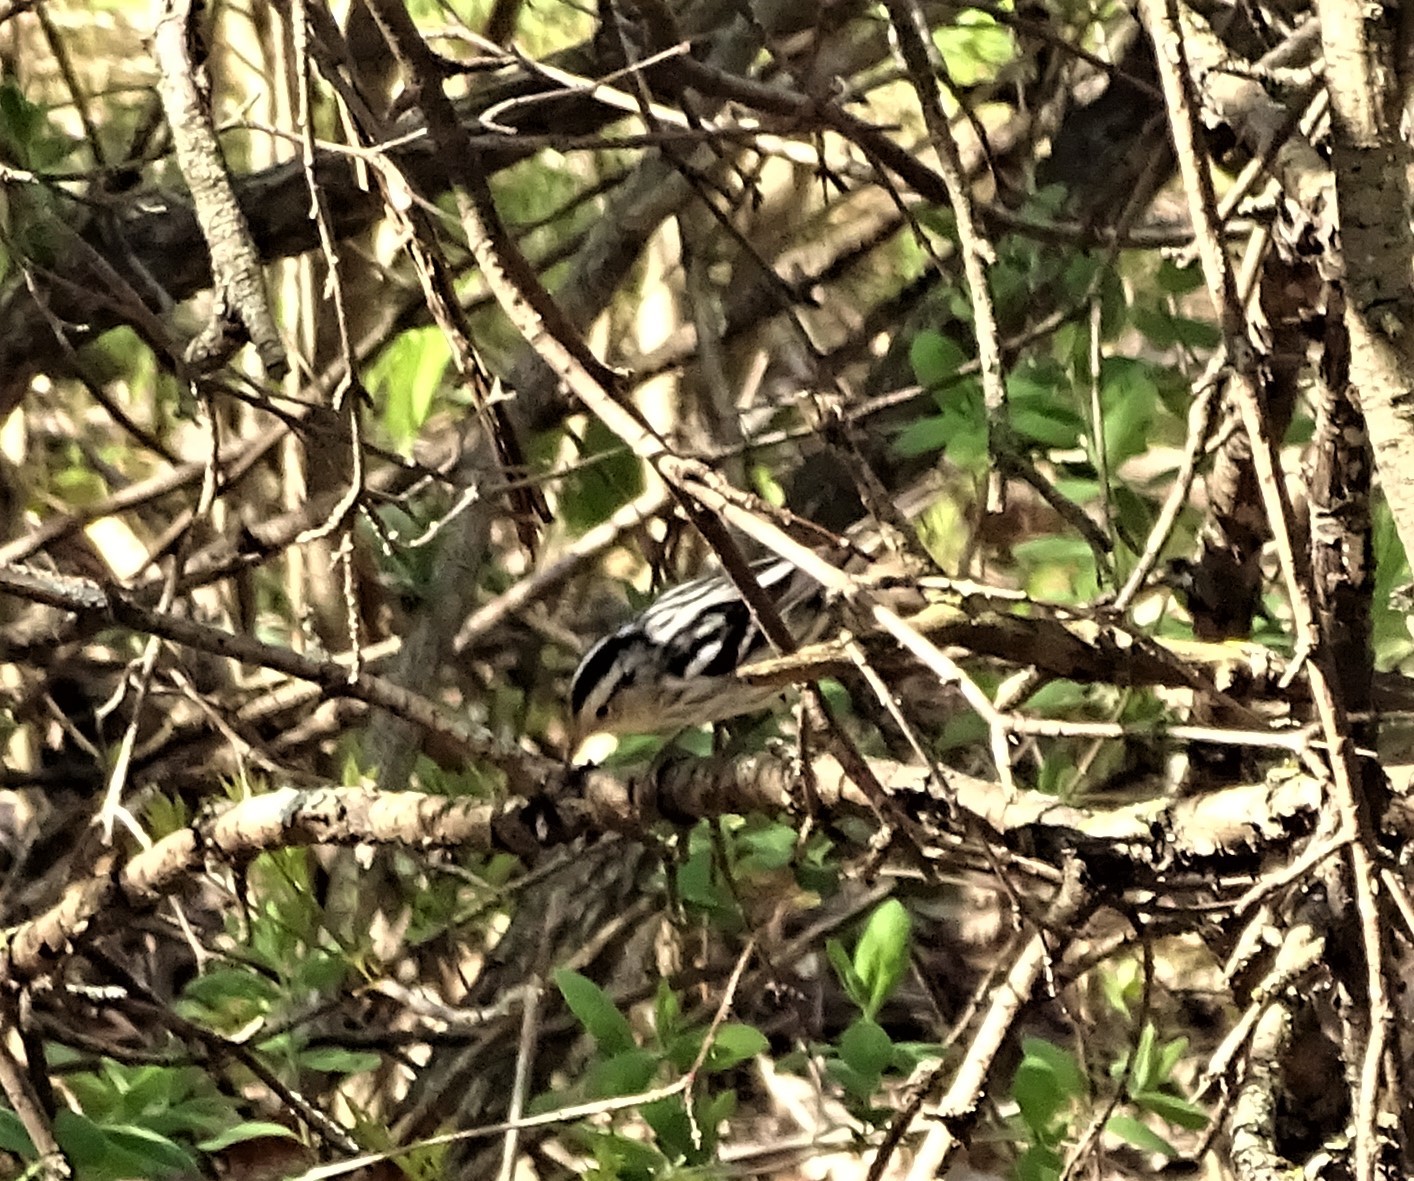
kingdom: Animalia
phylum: Chordata
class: Aves
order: Passeriformes
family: Parulidae
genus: Mniotilta
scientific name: Mniotilta varia
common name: Black-and-white warbler
